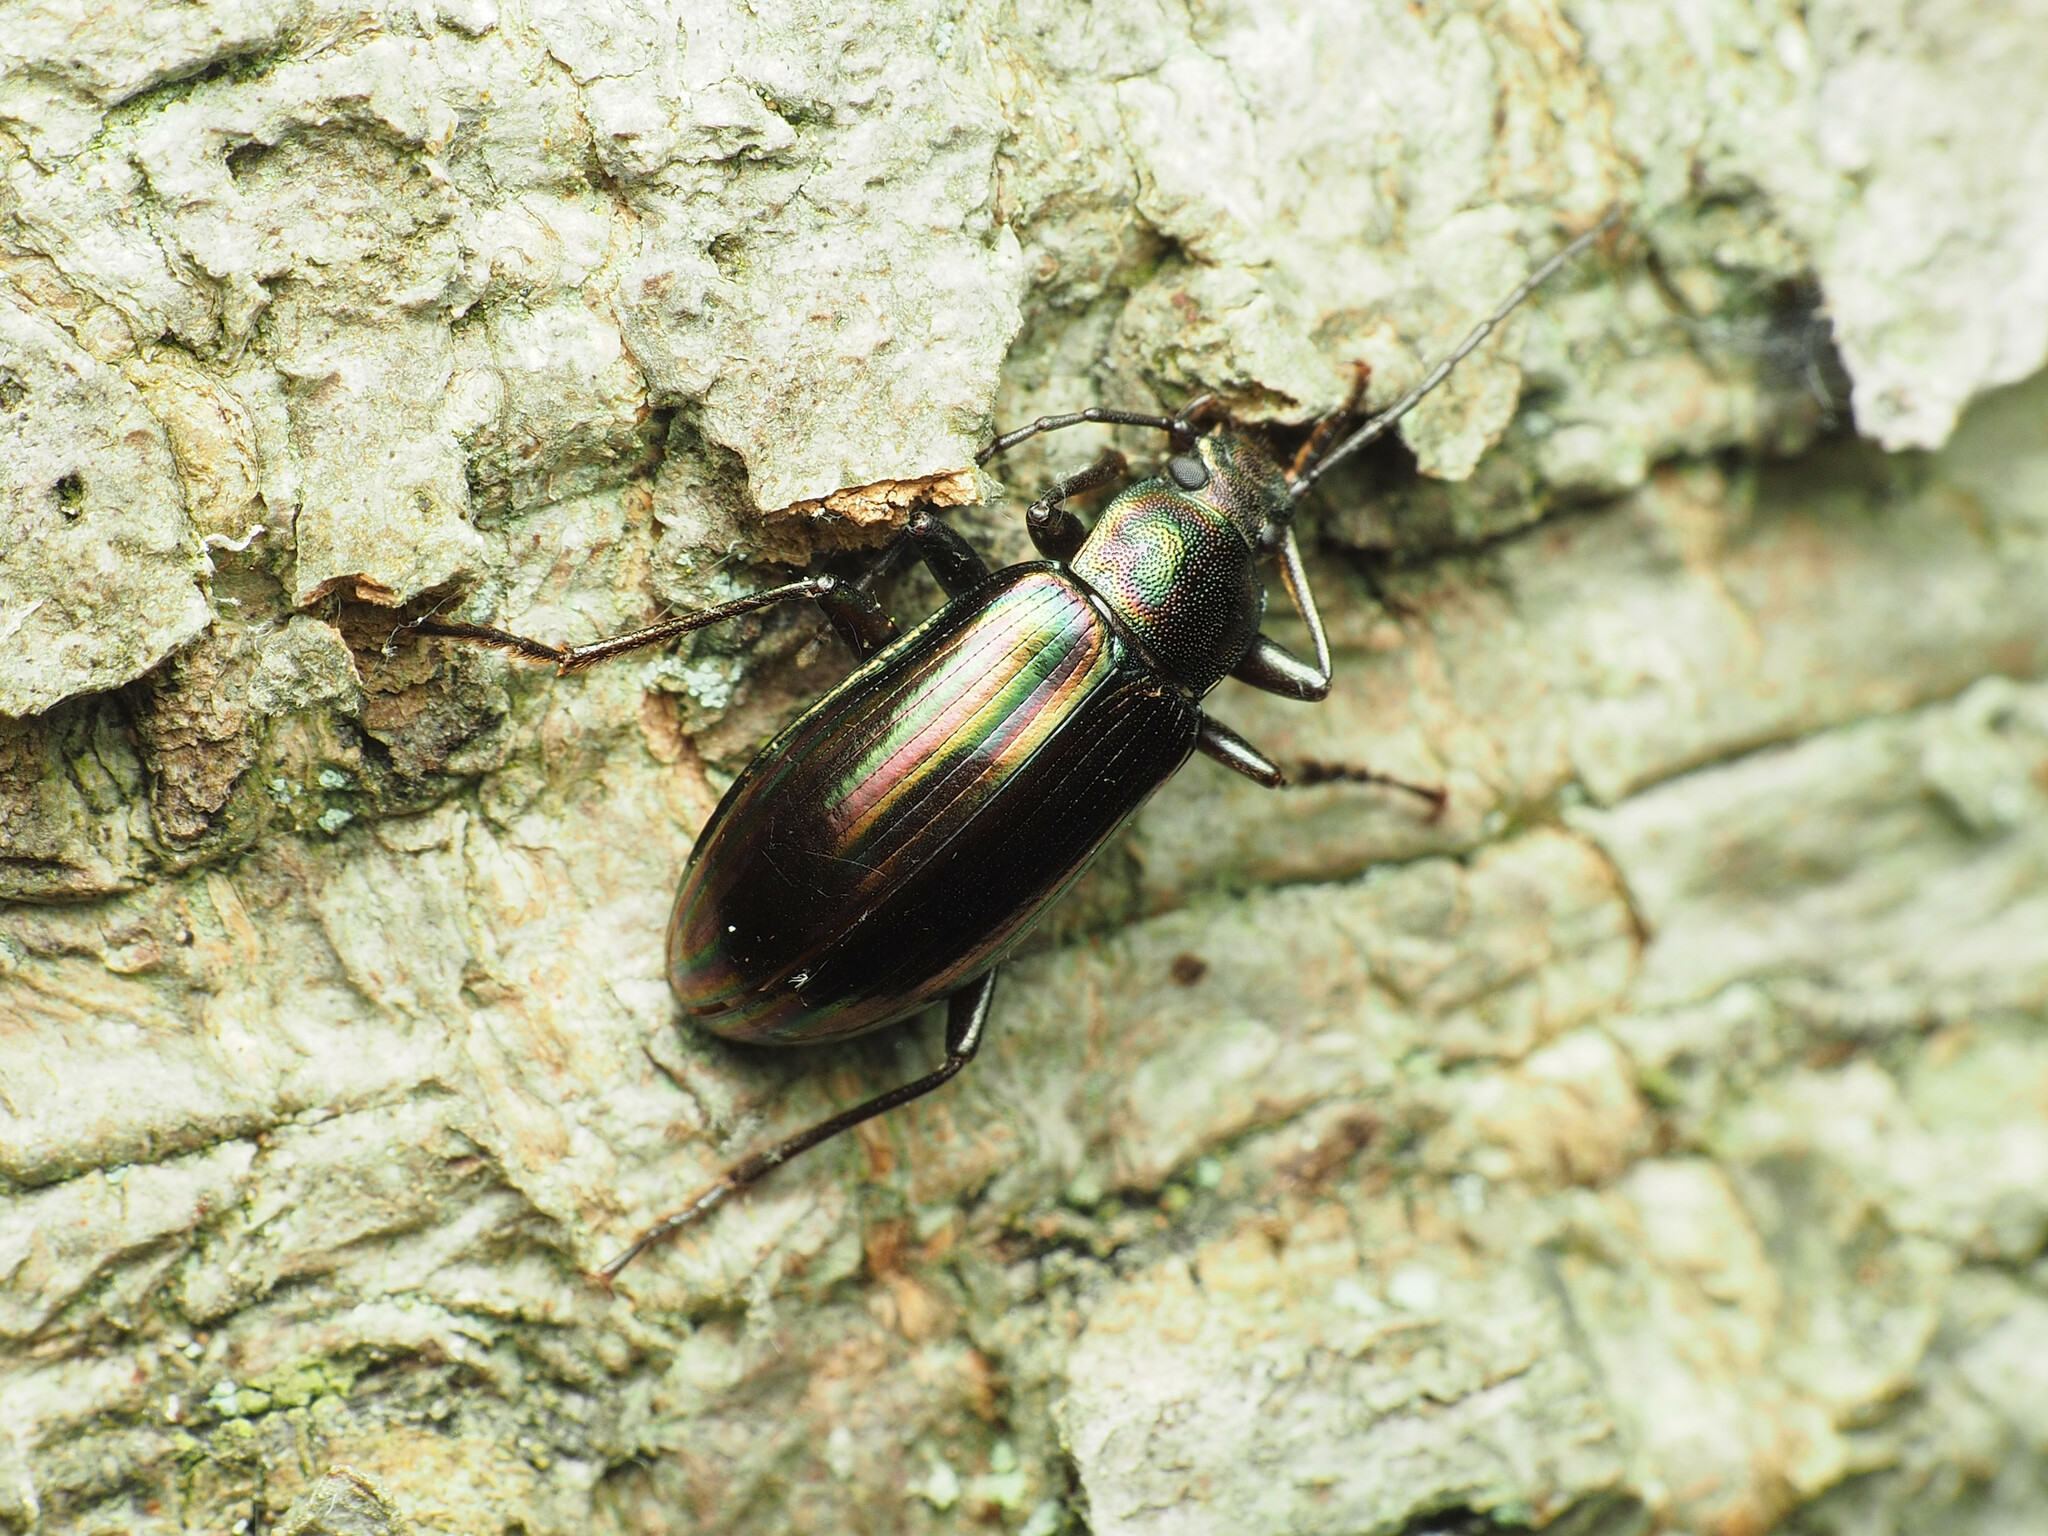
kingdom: Animalia
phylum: Arthropoda
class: Insecta
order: Coleoptera
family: Tenebrionidae
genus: Tarpela
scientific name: Tarpela micans
